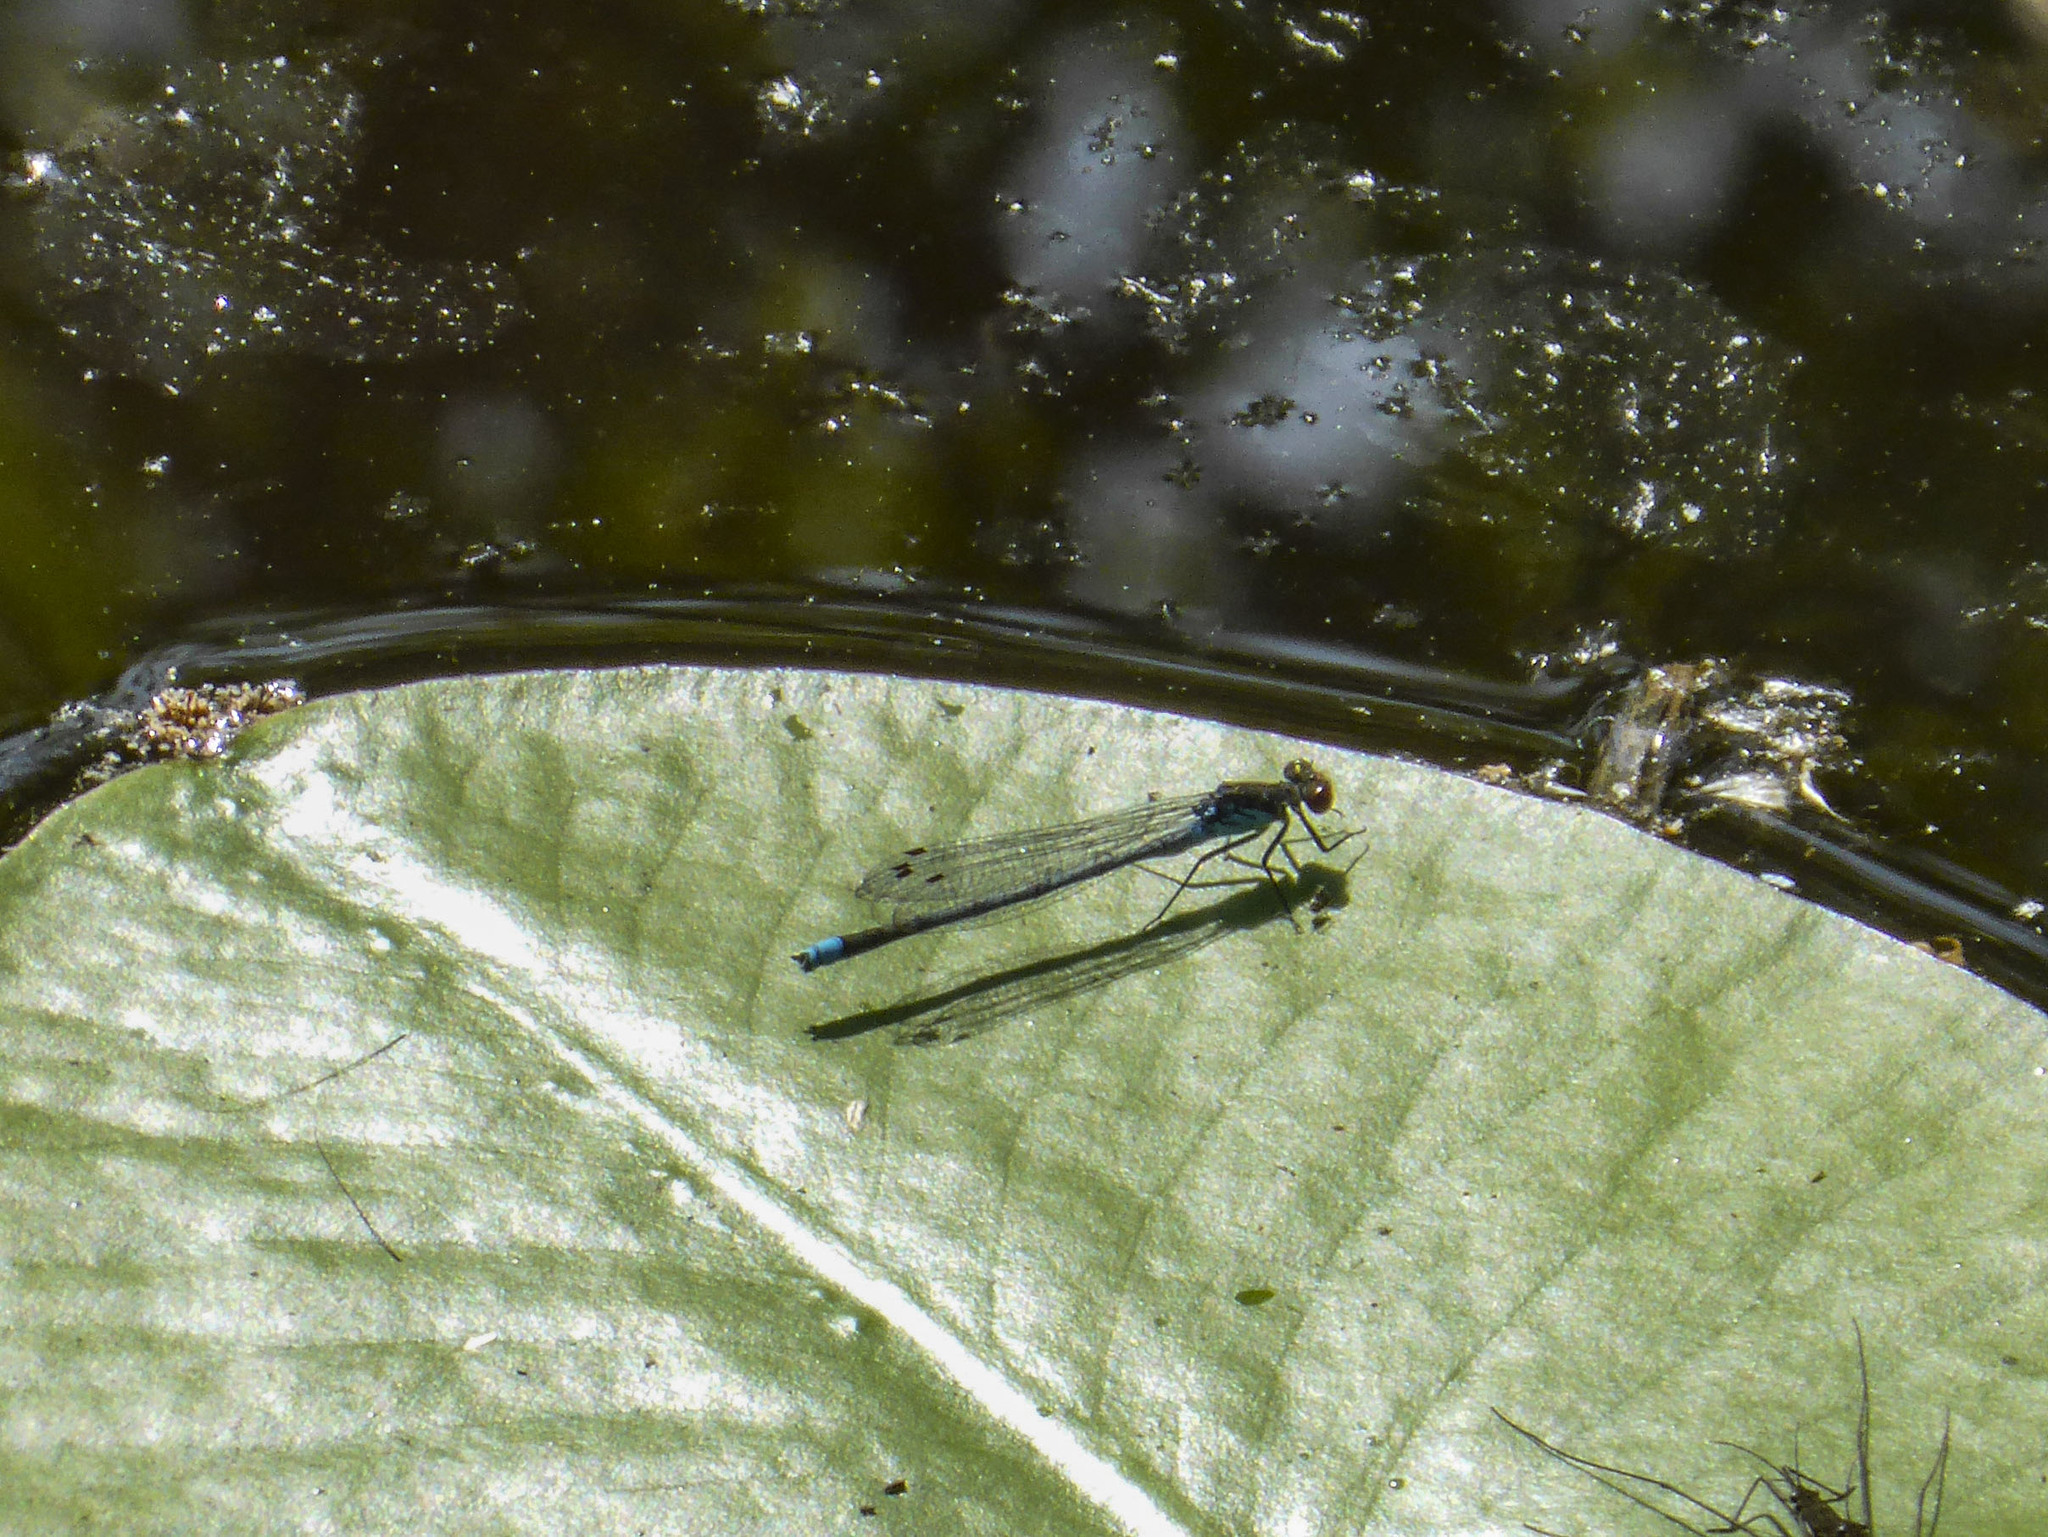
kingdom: Animalia
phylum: Arthropoda
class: Insecta
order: Odonata
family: Coenagrionidae
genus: Erythromma
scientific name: Erythromma najas
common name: Red-eyed damselfly
